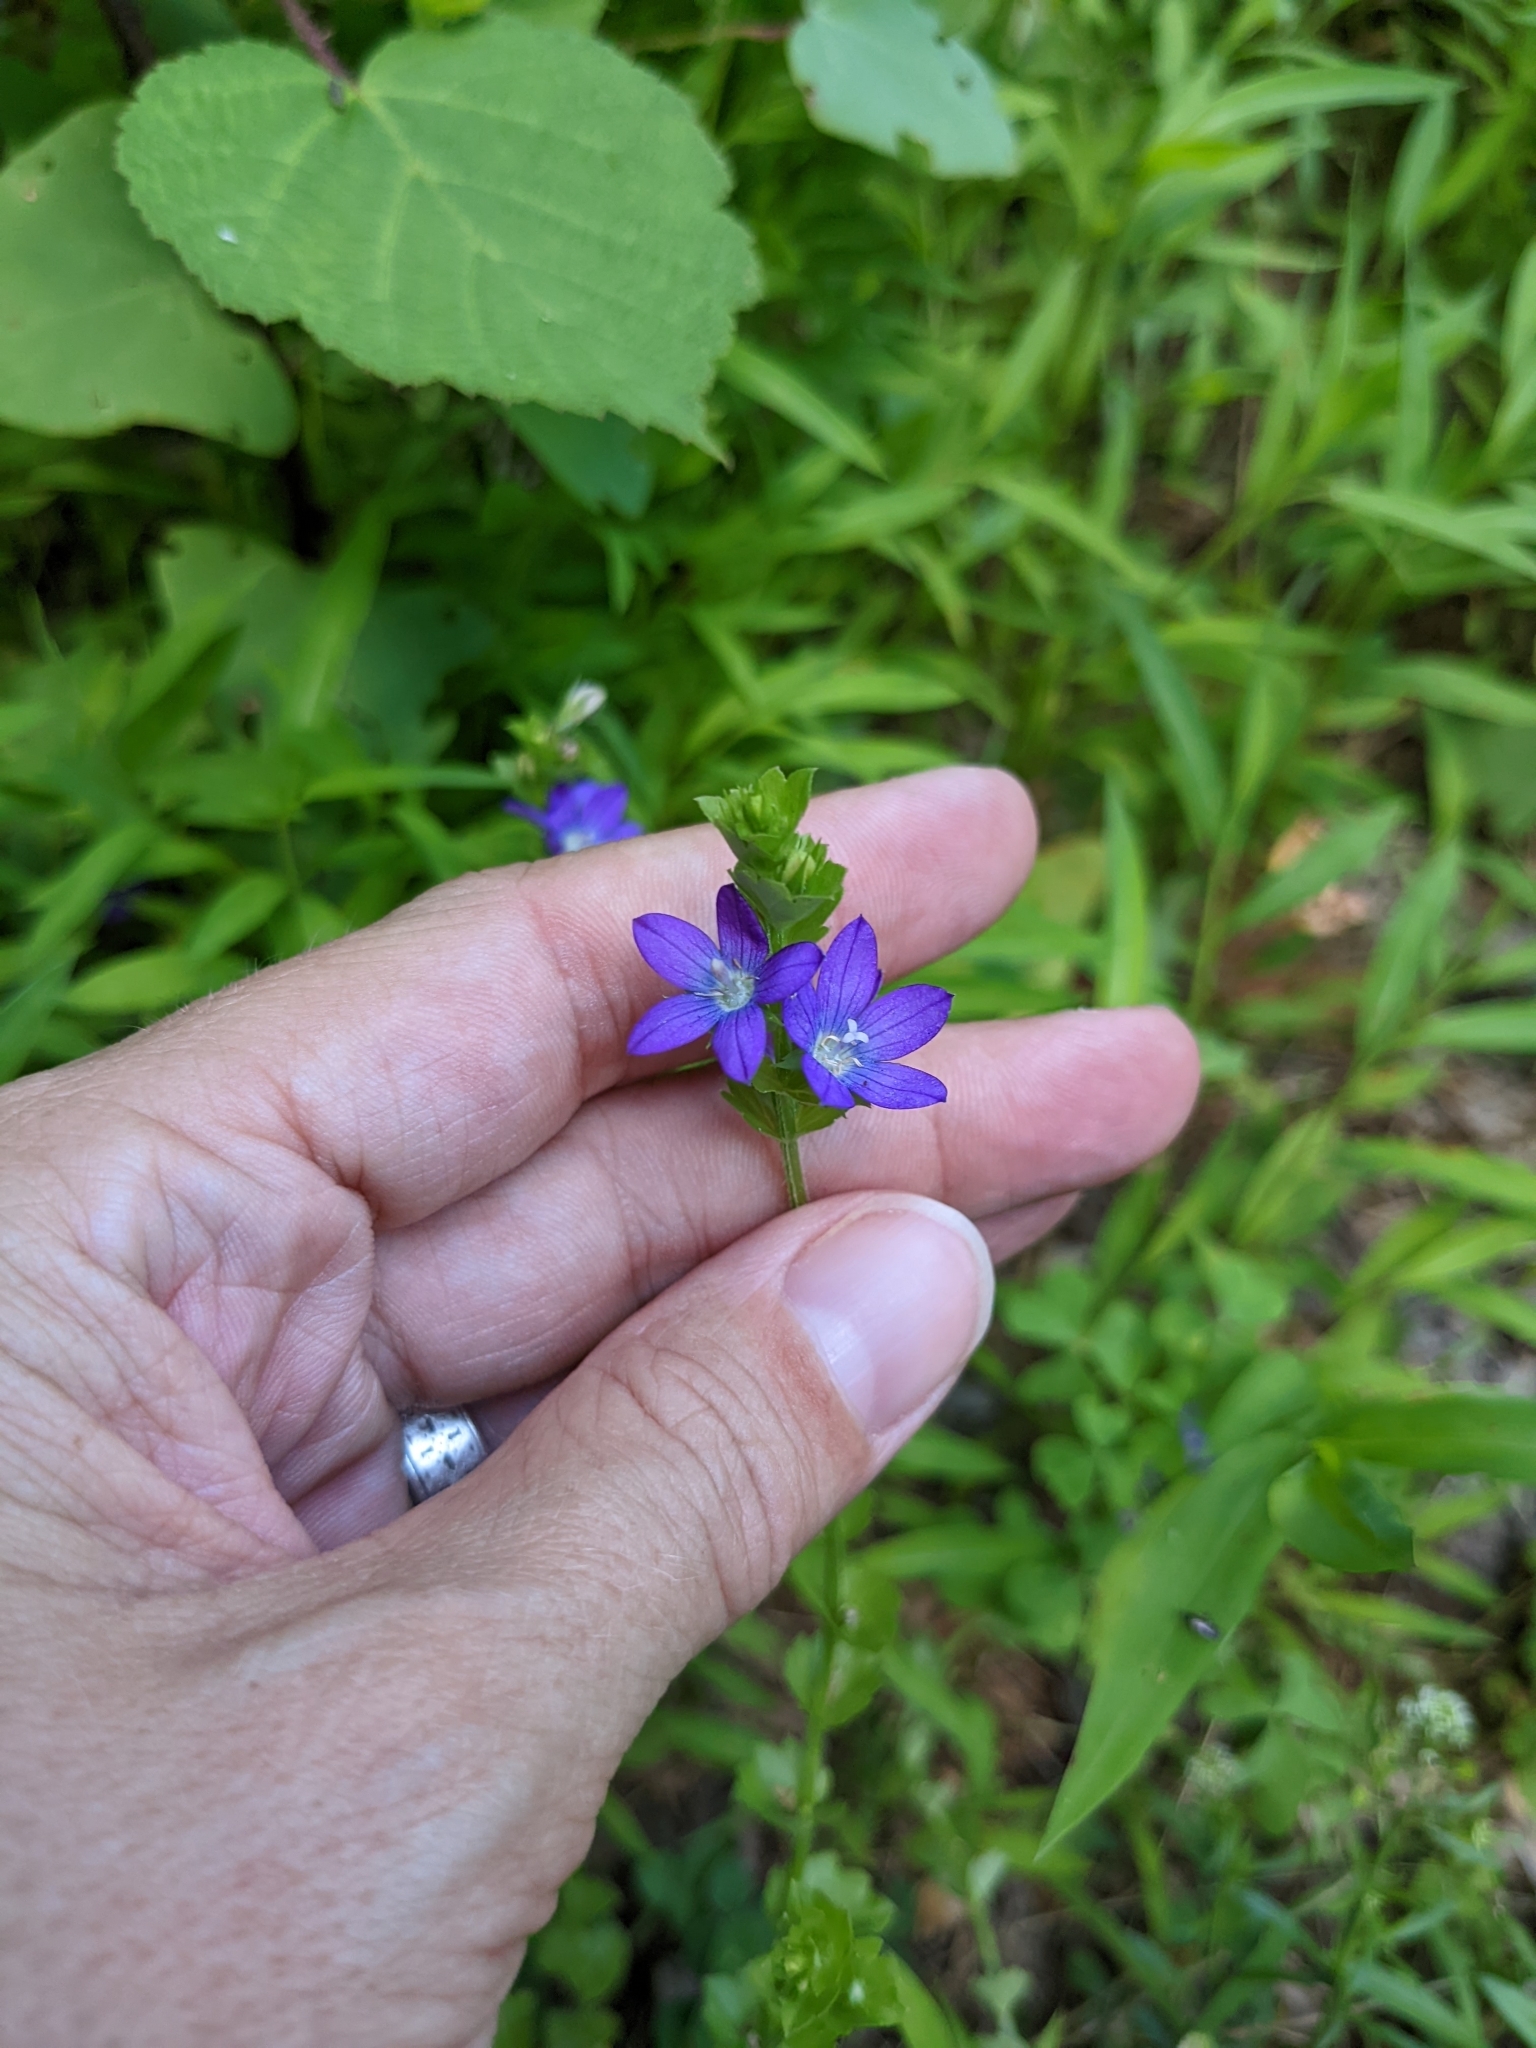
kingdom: Plantae
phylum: Tracheophyta
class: Magnoliopsida
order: Asterales
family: Campanulaceae
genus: Triodanis
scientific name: Triodanis perfoliata
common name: Clasping venus' looking-glass
